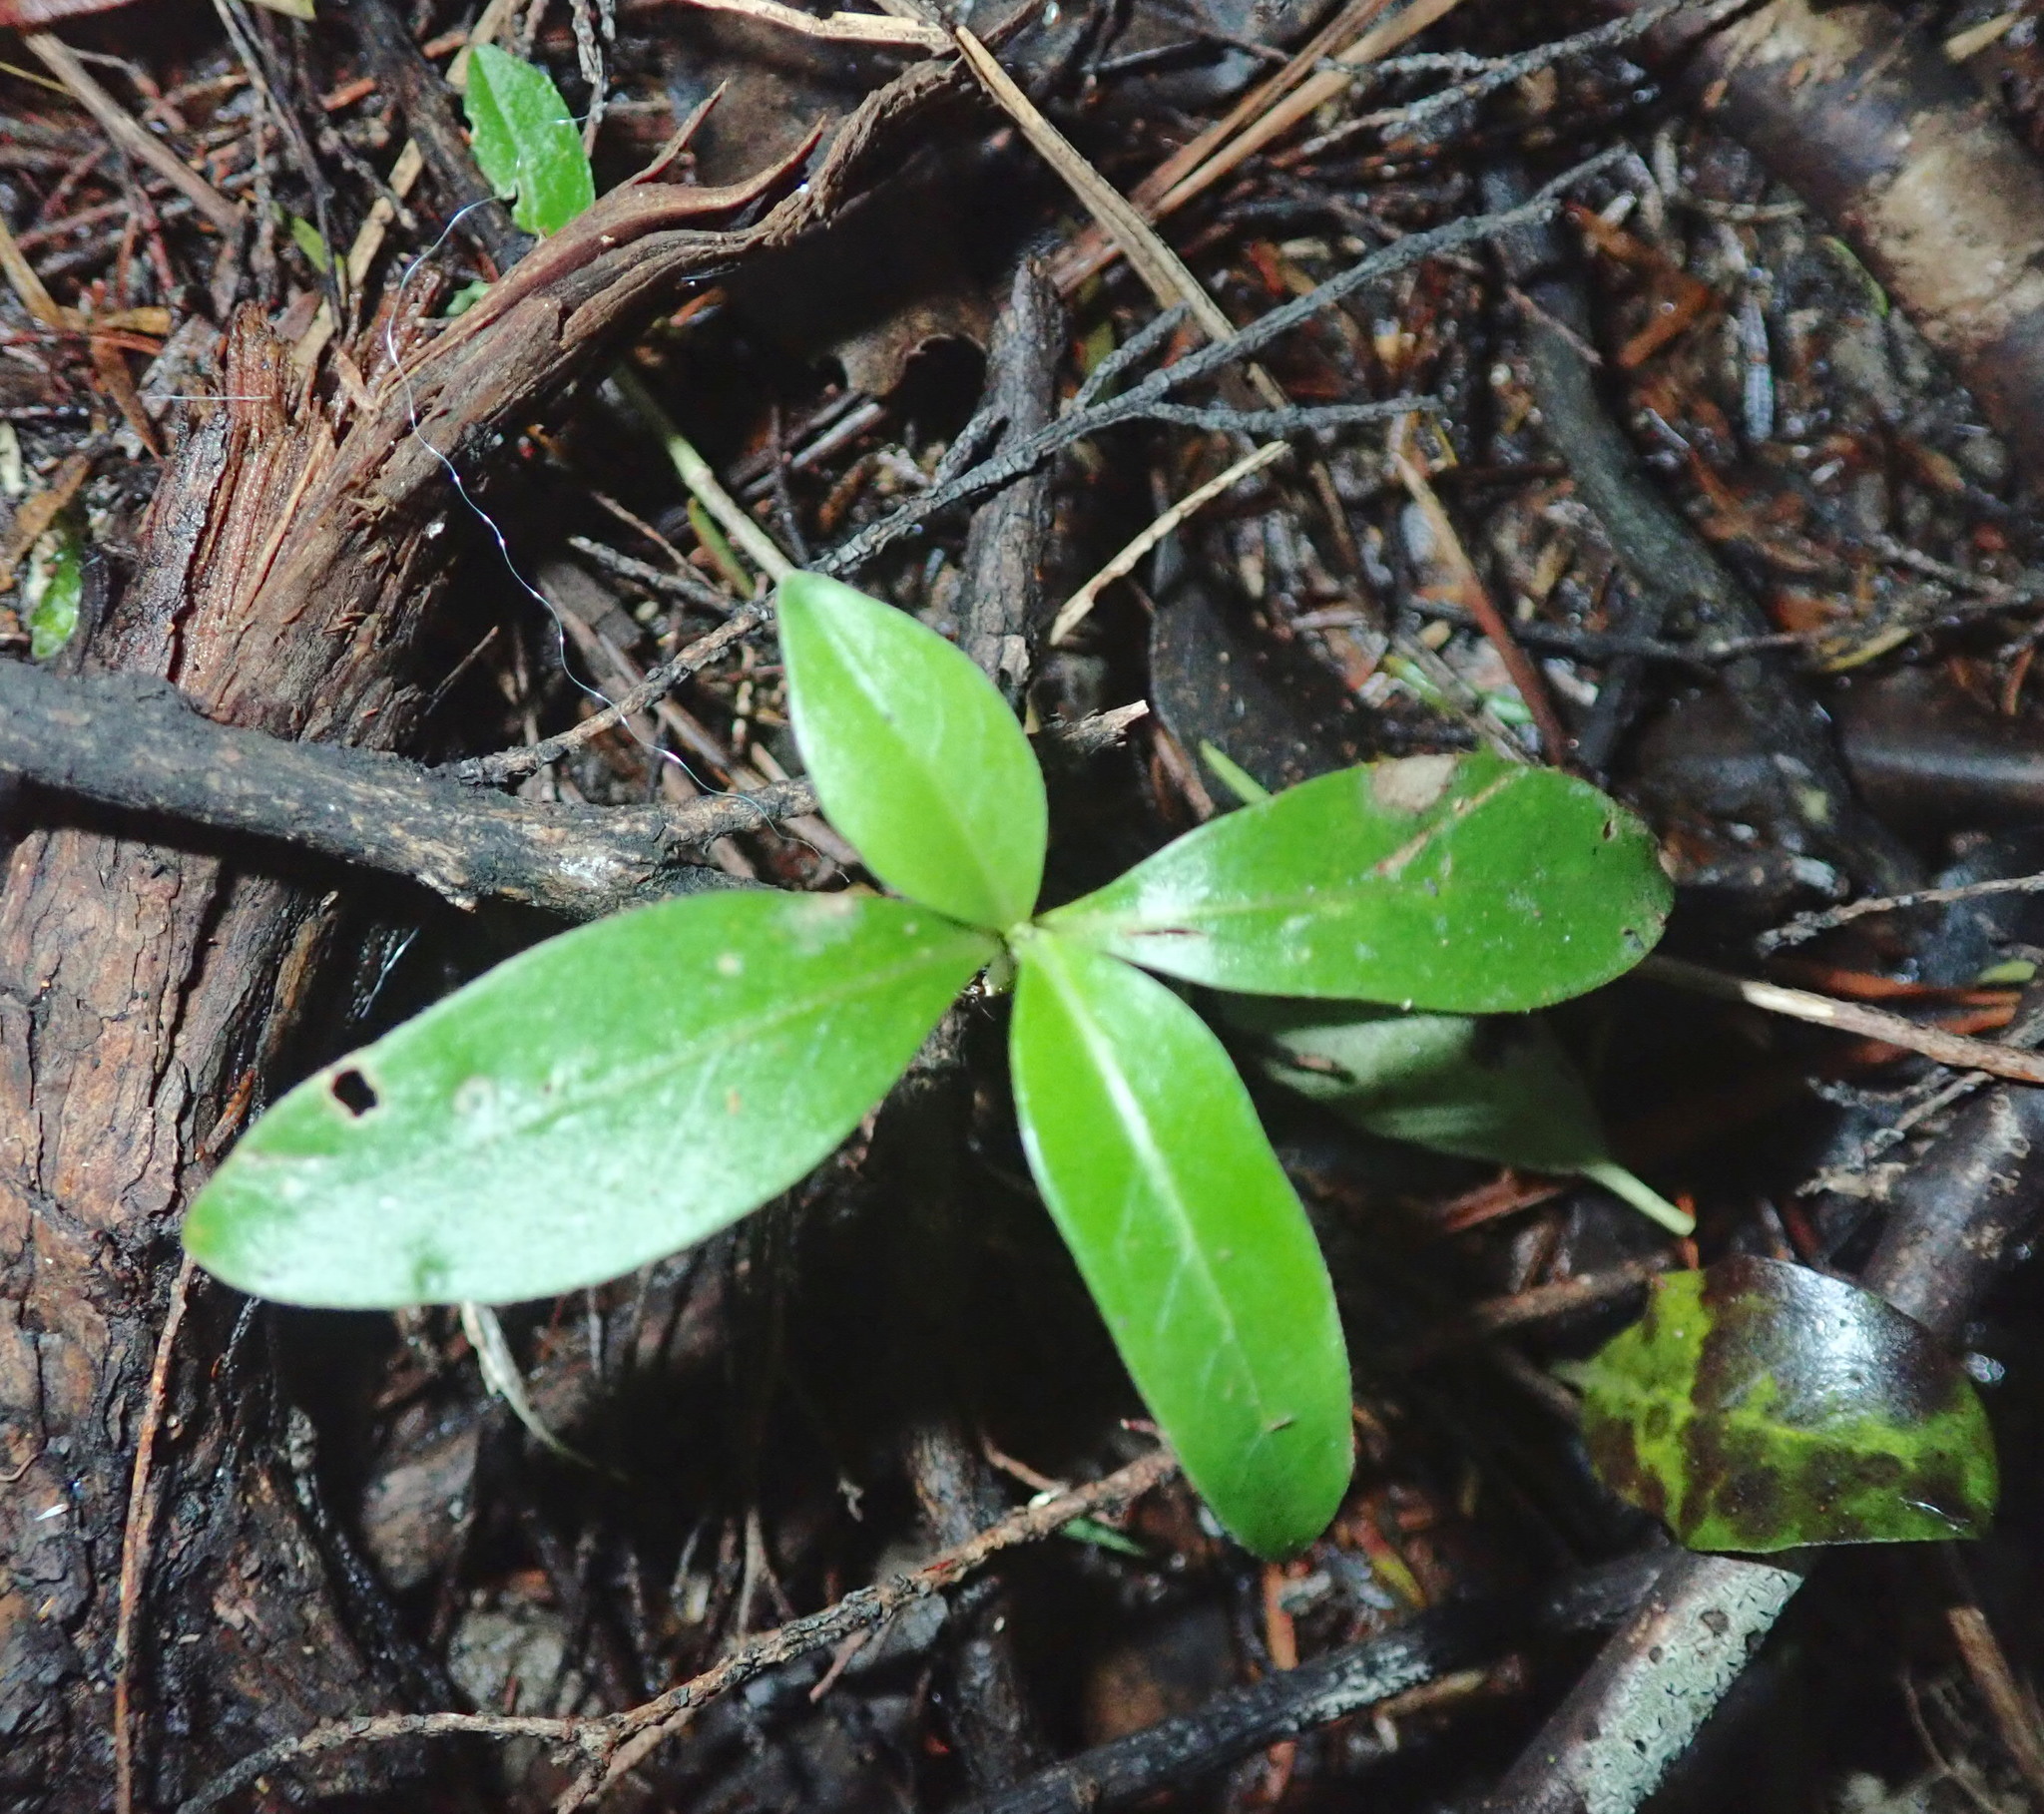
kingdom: Plantae
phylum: Tracheophyta
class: Magnoliopsida
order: Gentianales
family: Rubiaceae
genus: Coprosma
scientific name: Coprosma robusta
